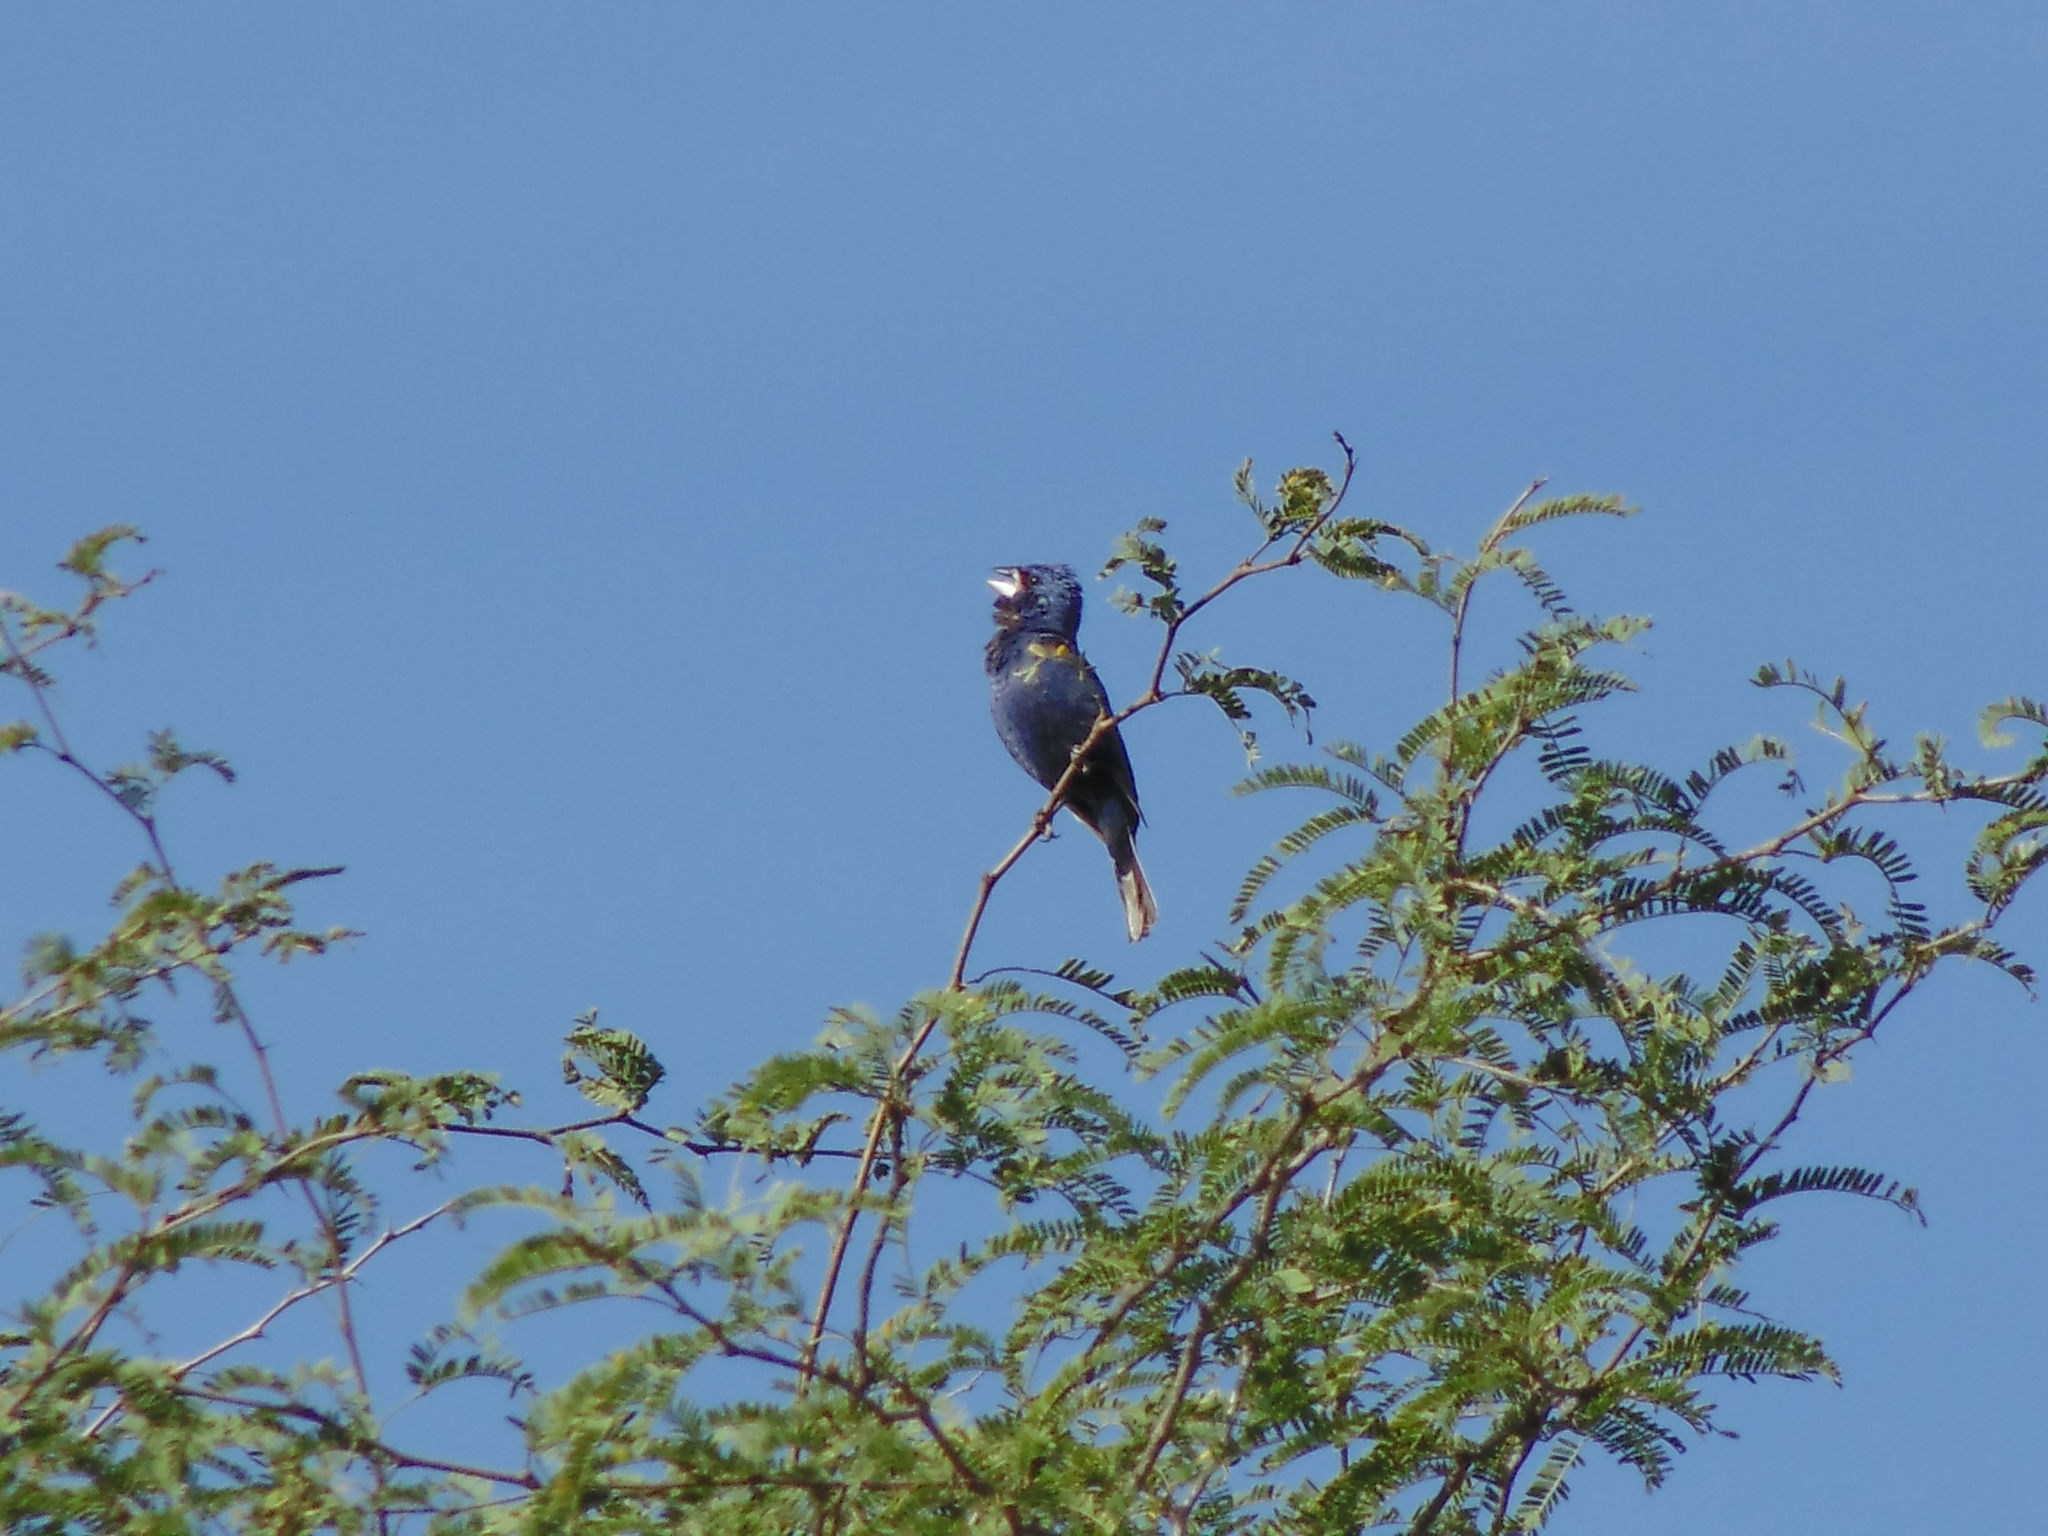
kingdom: Animalia
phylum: Chordata
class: Aves
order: Passeriformes
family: Cardinalidae
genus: Passerina
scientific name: Passerina caerulea
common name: Blue grosbeak
